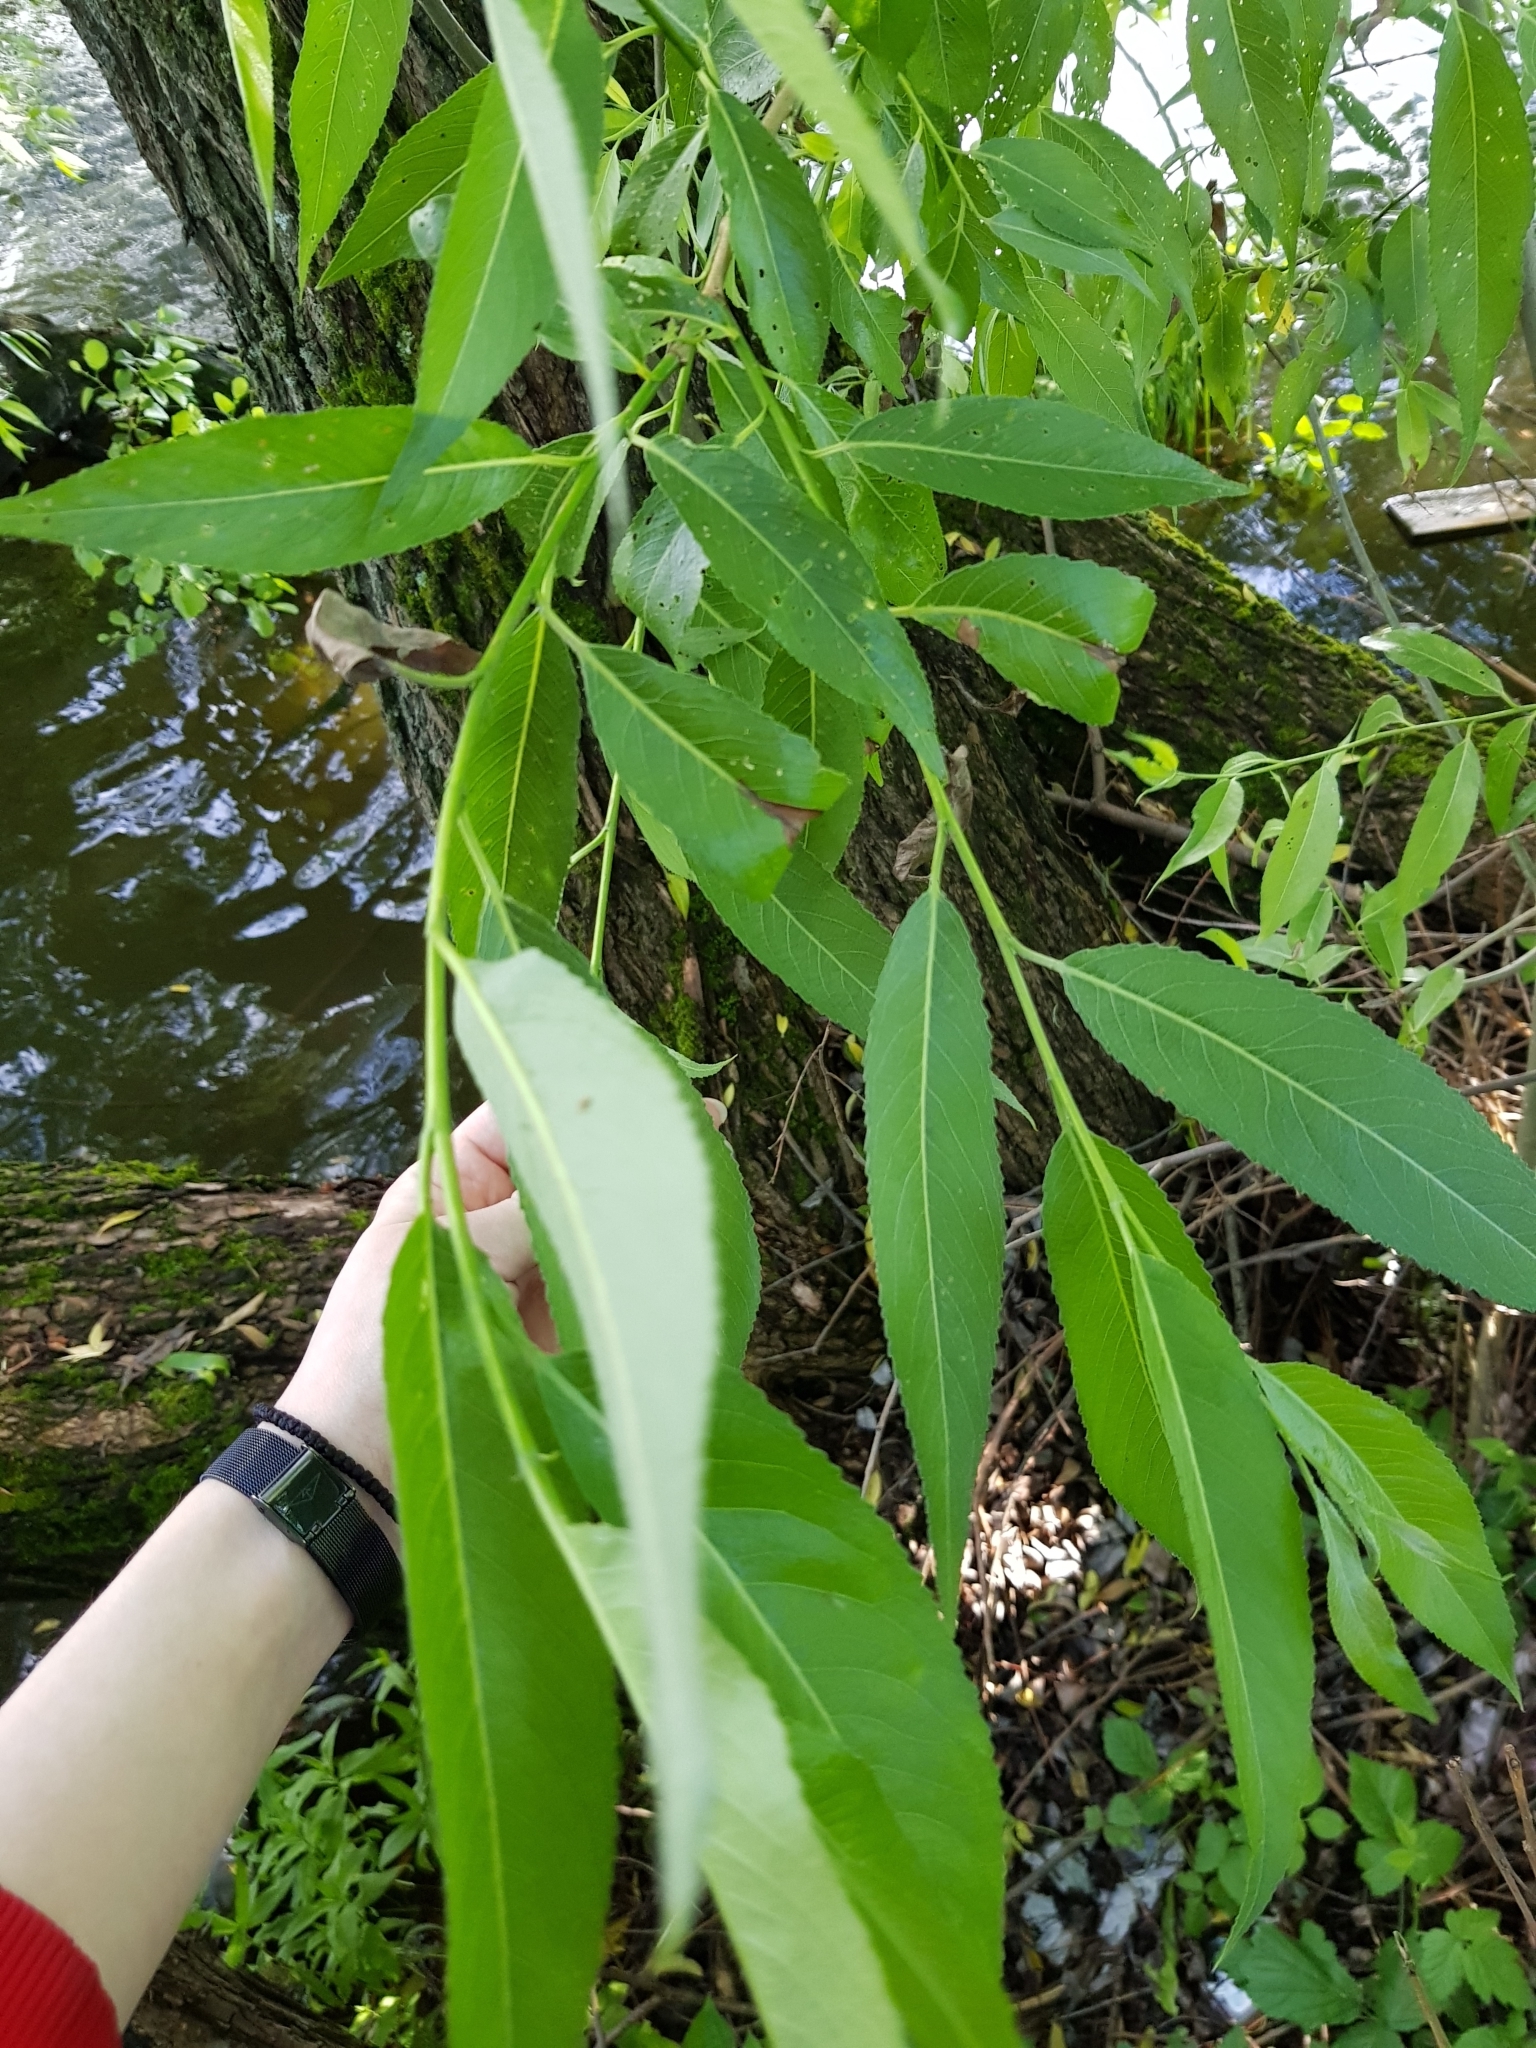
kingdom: Plantae
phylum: Tracheophyta
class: Magnoliopsida
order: Malpighiales
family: Salicaceae
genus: Salix
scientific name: Salix fragilis
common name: Crack willow
